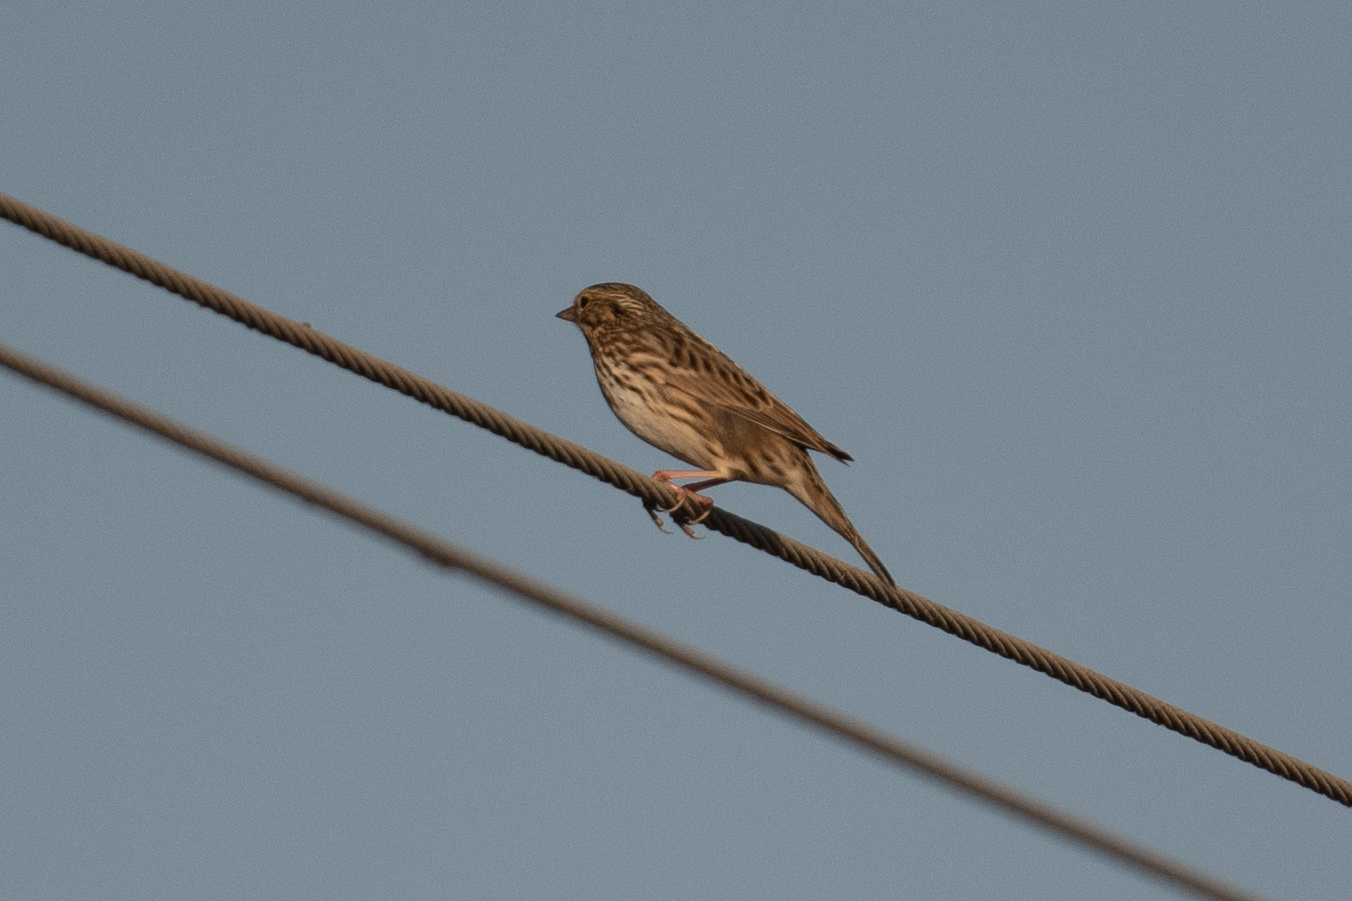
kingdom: Animalia
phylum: Chordata
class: Aves
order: Passeriformes
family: Passerellidae
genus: Passerculus
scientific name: Passerculus sandwichensis
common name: Savannah sparrow
